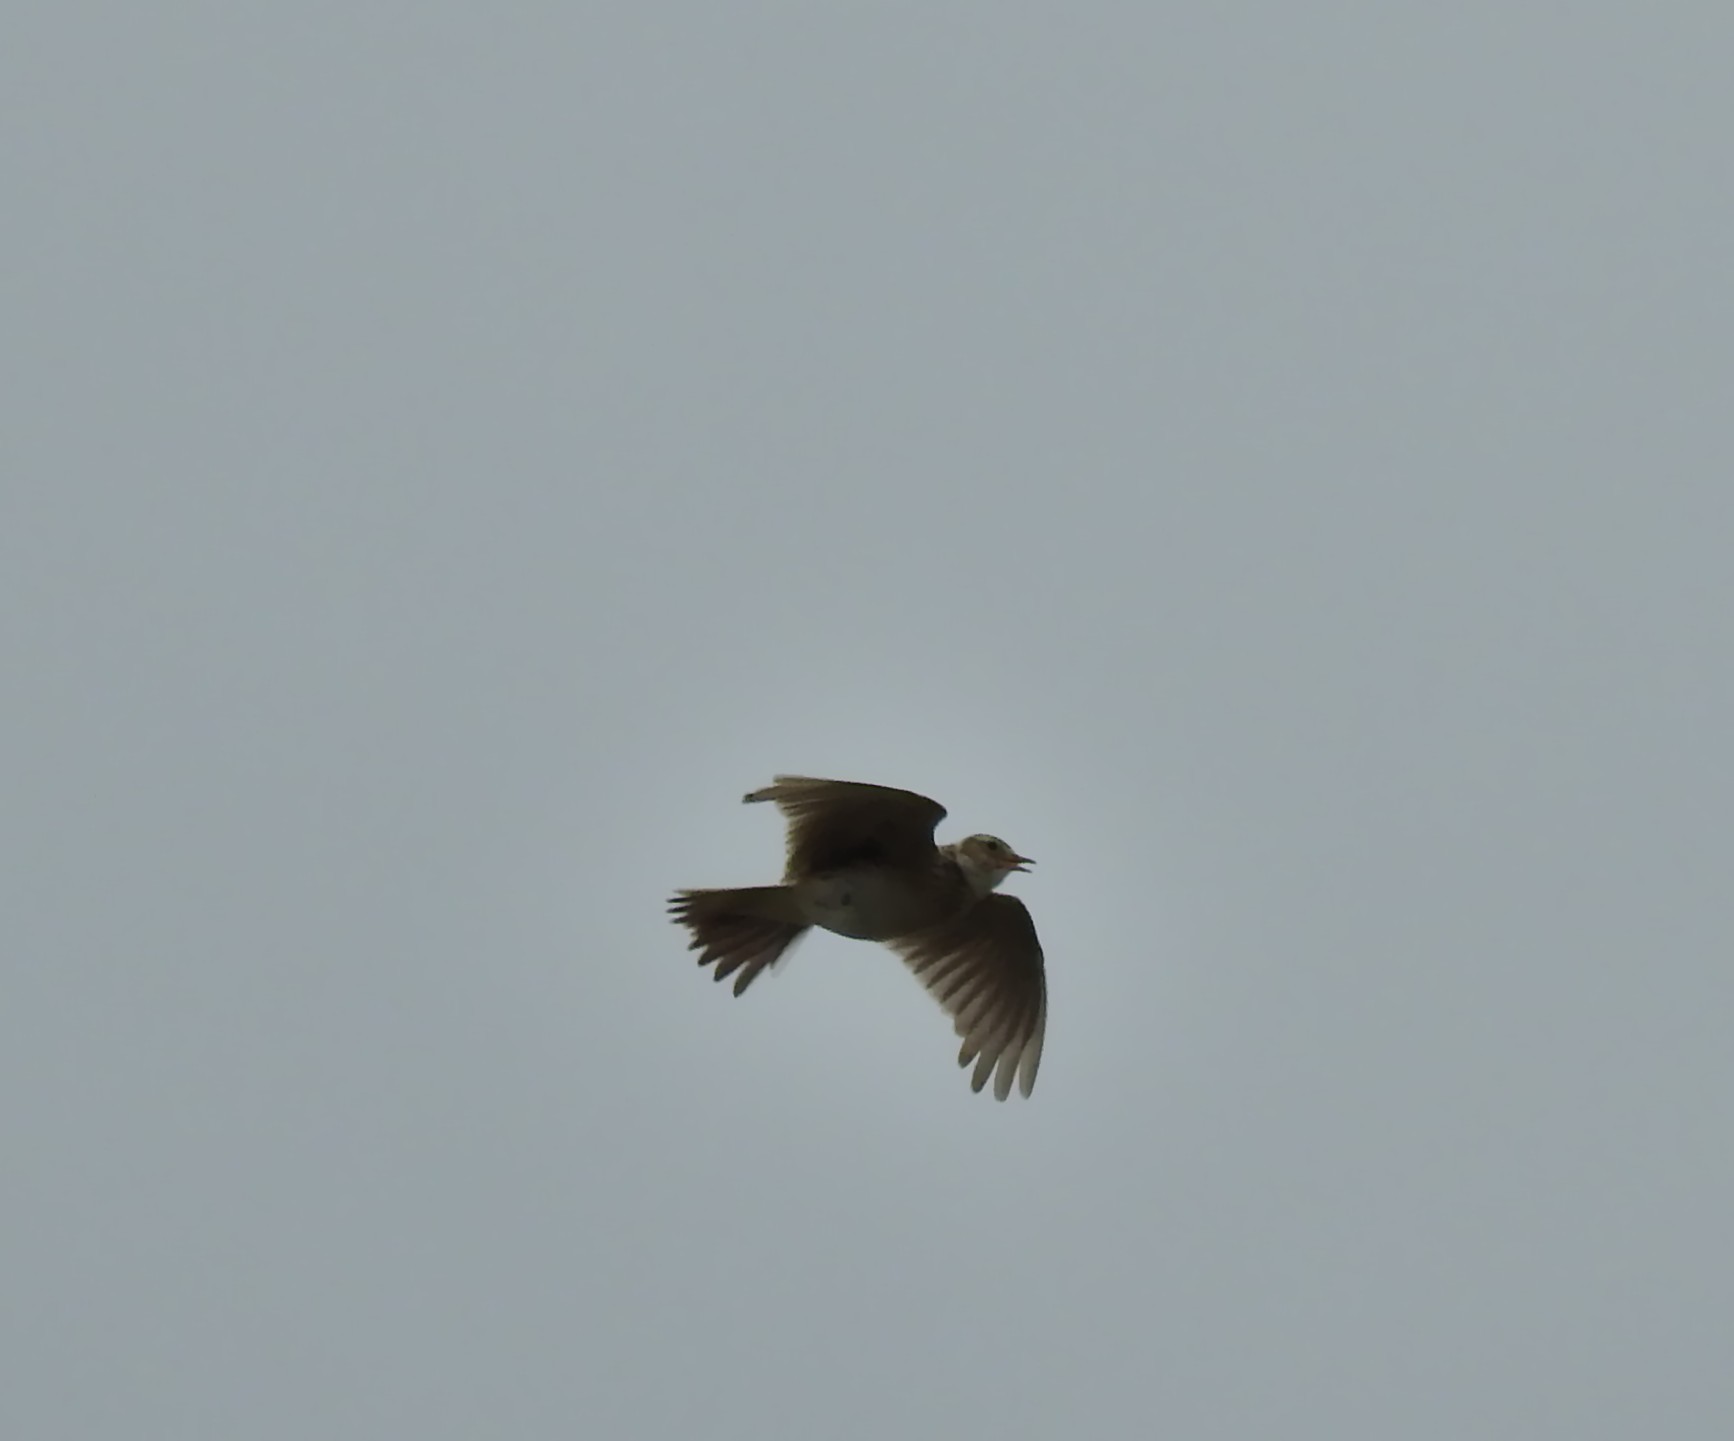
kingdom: Animalia
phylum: Chordata
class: Aves
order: Passeriformes
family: Alaudidae
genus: Alauda
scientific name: Alauda arvensis
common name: Eurasian skylark
